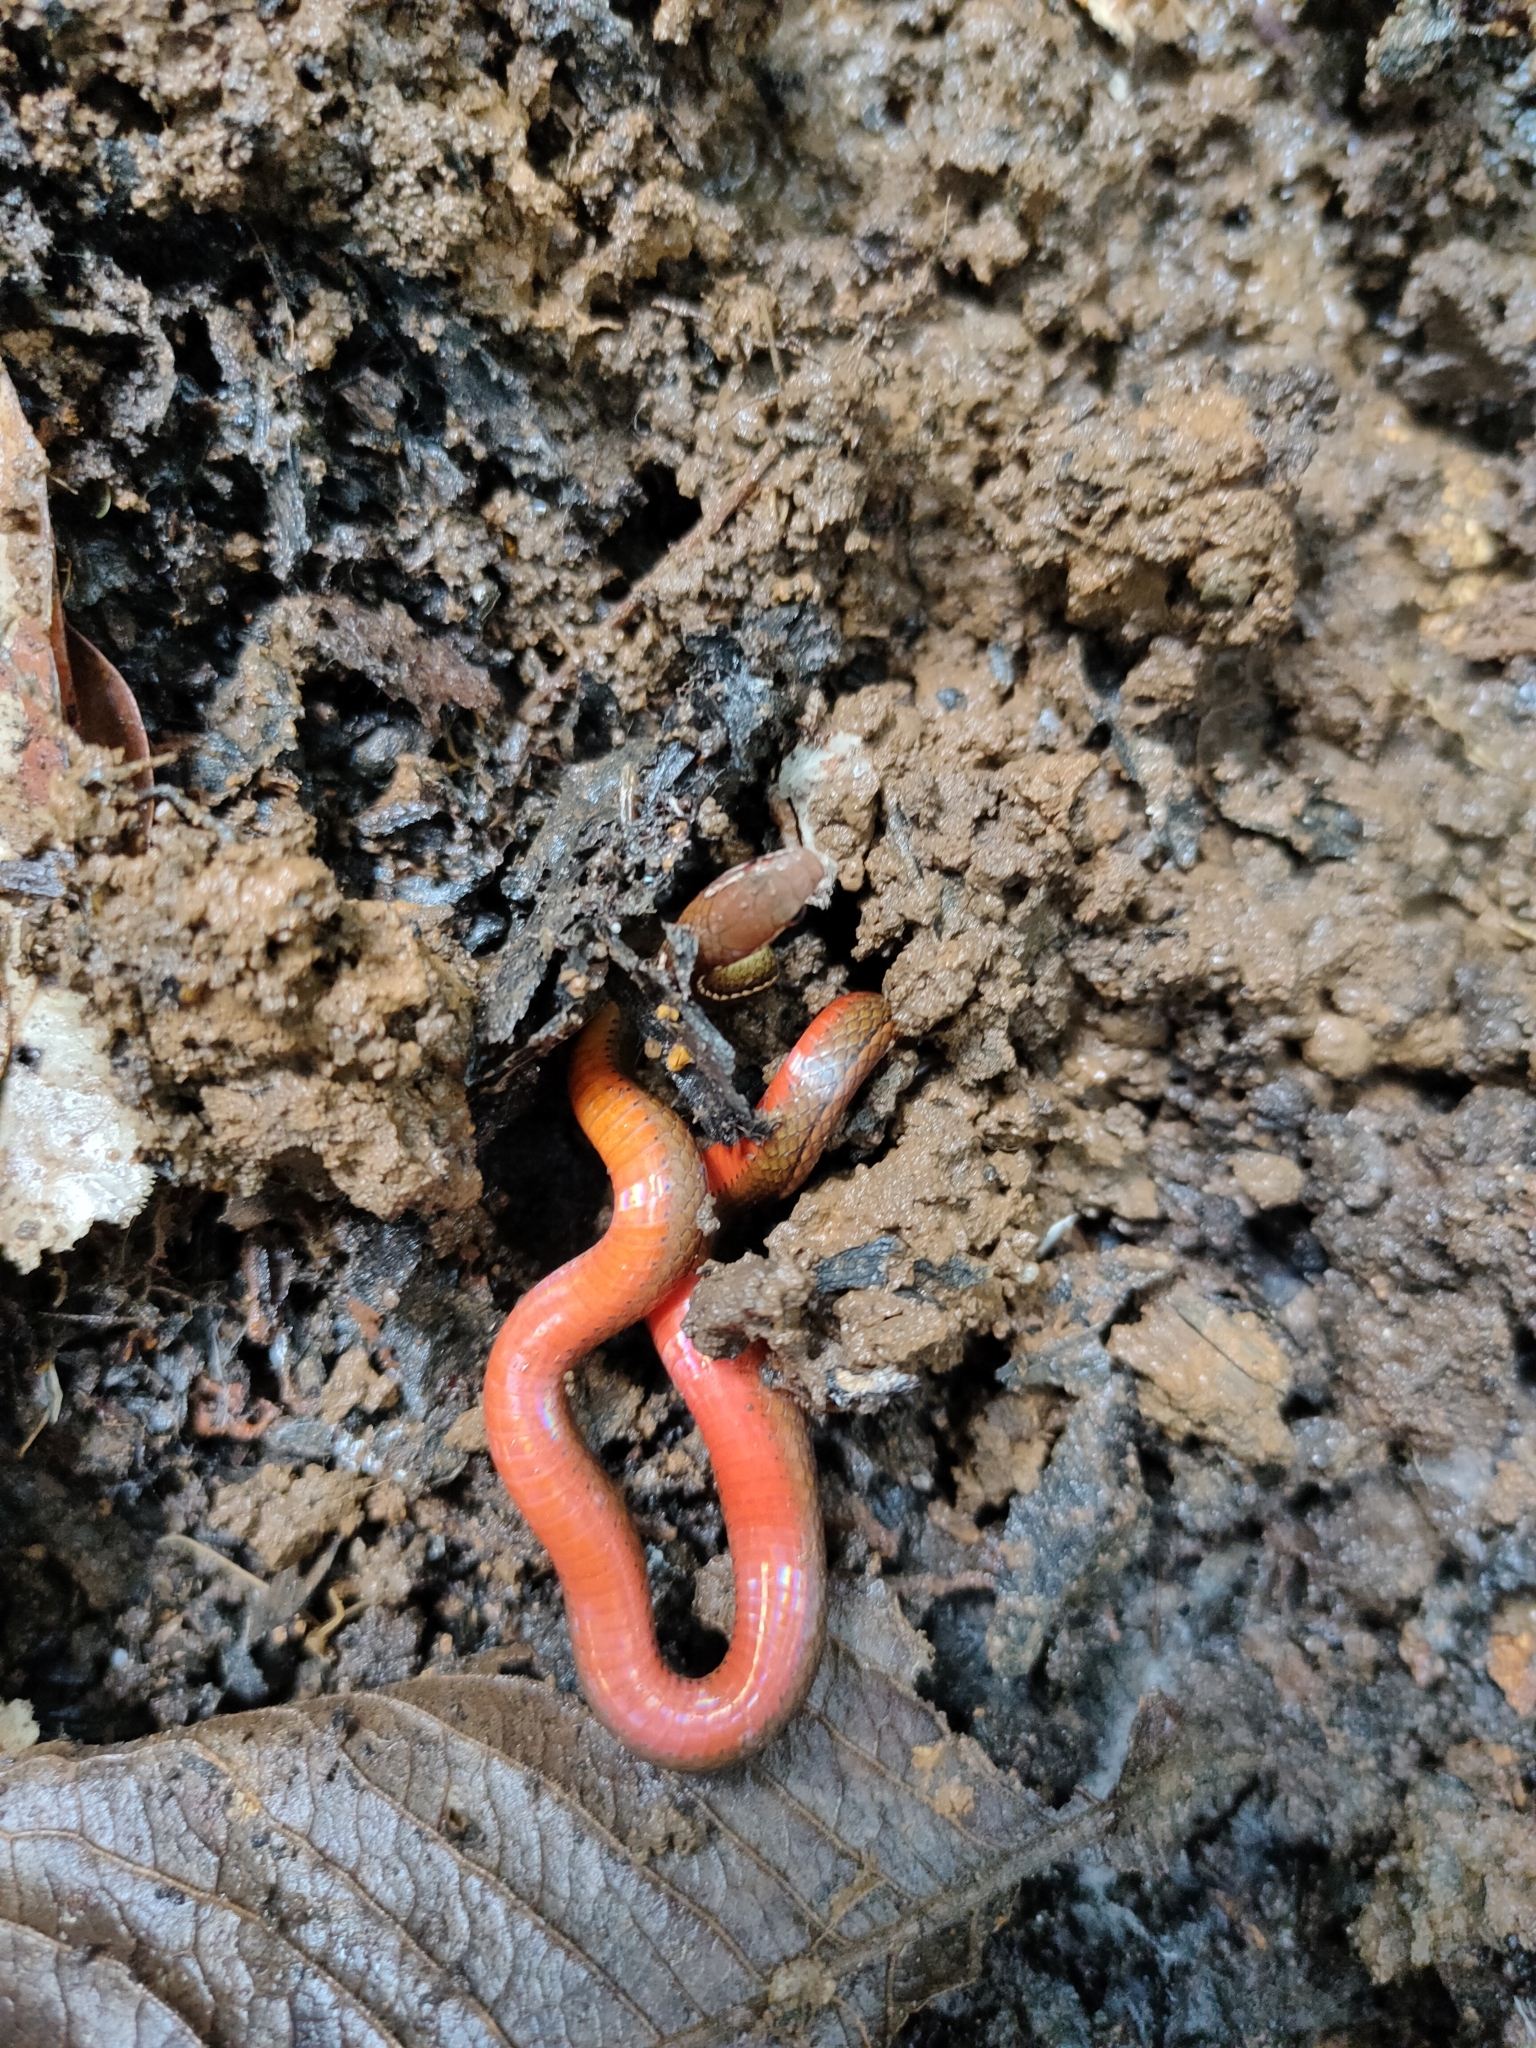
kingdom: Animalia
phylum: Chordata
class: Squamata
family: Colubridae
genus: Rhadinaea
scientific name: Rhadinaea decorata
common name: Adorned graceful brown snake
